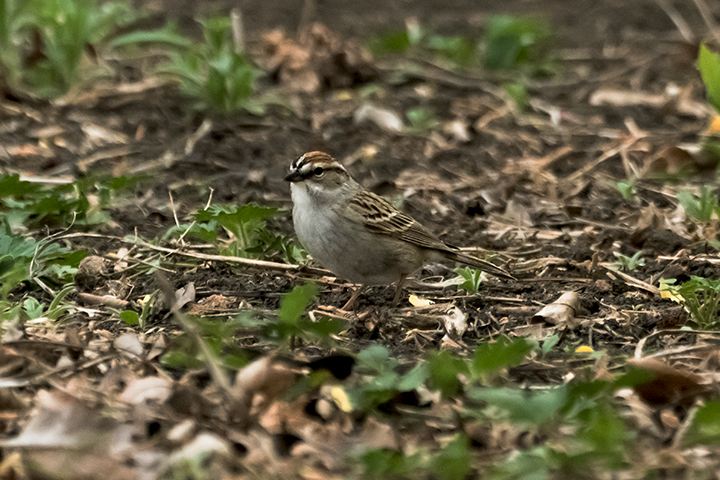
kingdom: Animalia
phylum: Chordata
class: Aves
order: Passeriformes
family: Passerellidae
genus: Spizella
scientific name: Spizella passerina
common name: Chipping sparrow
